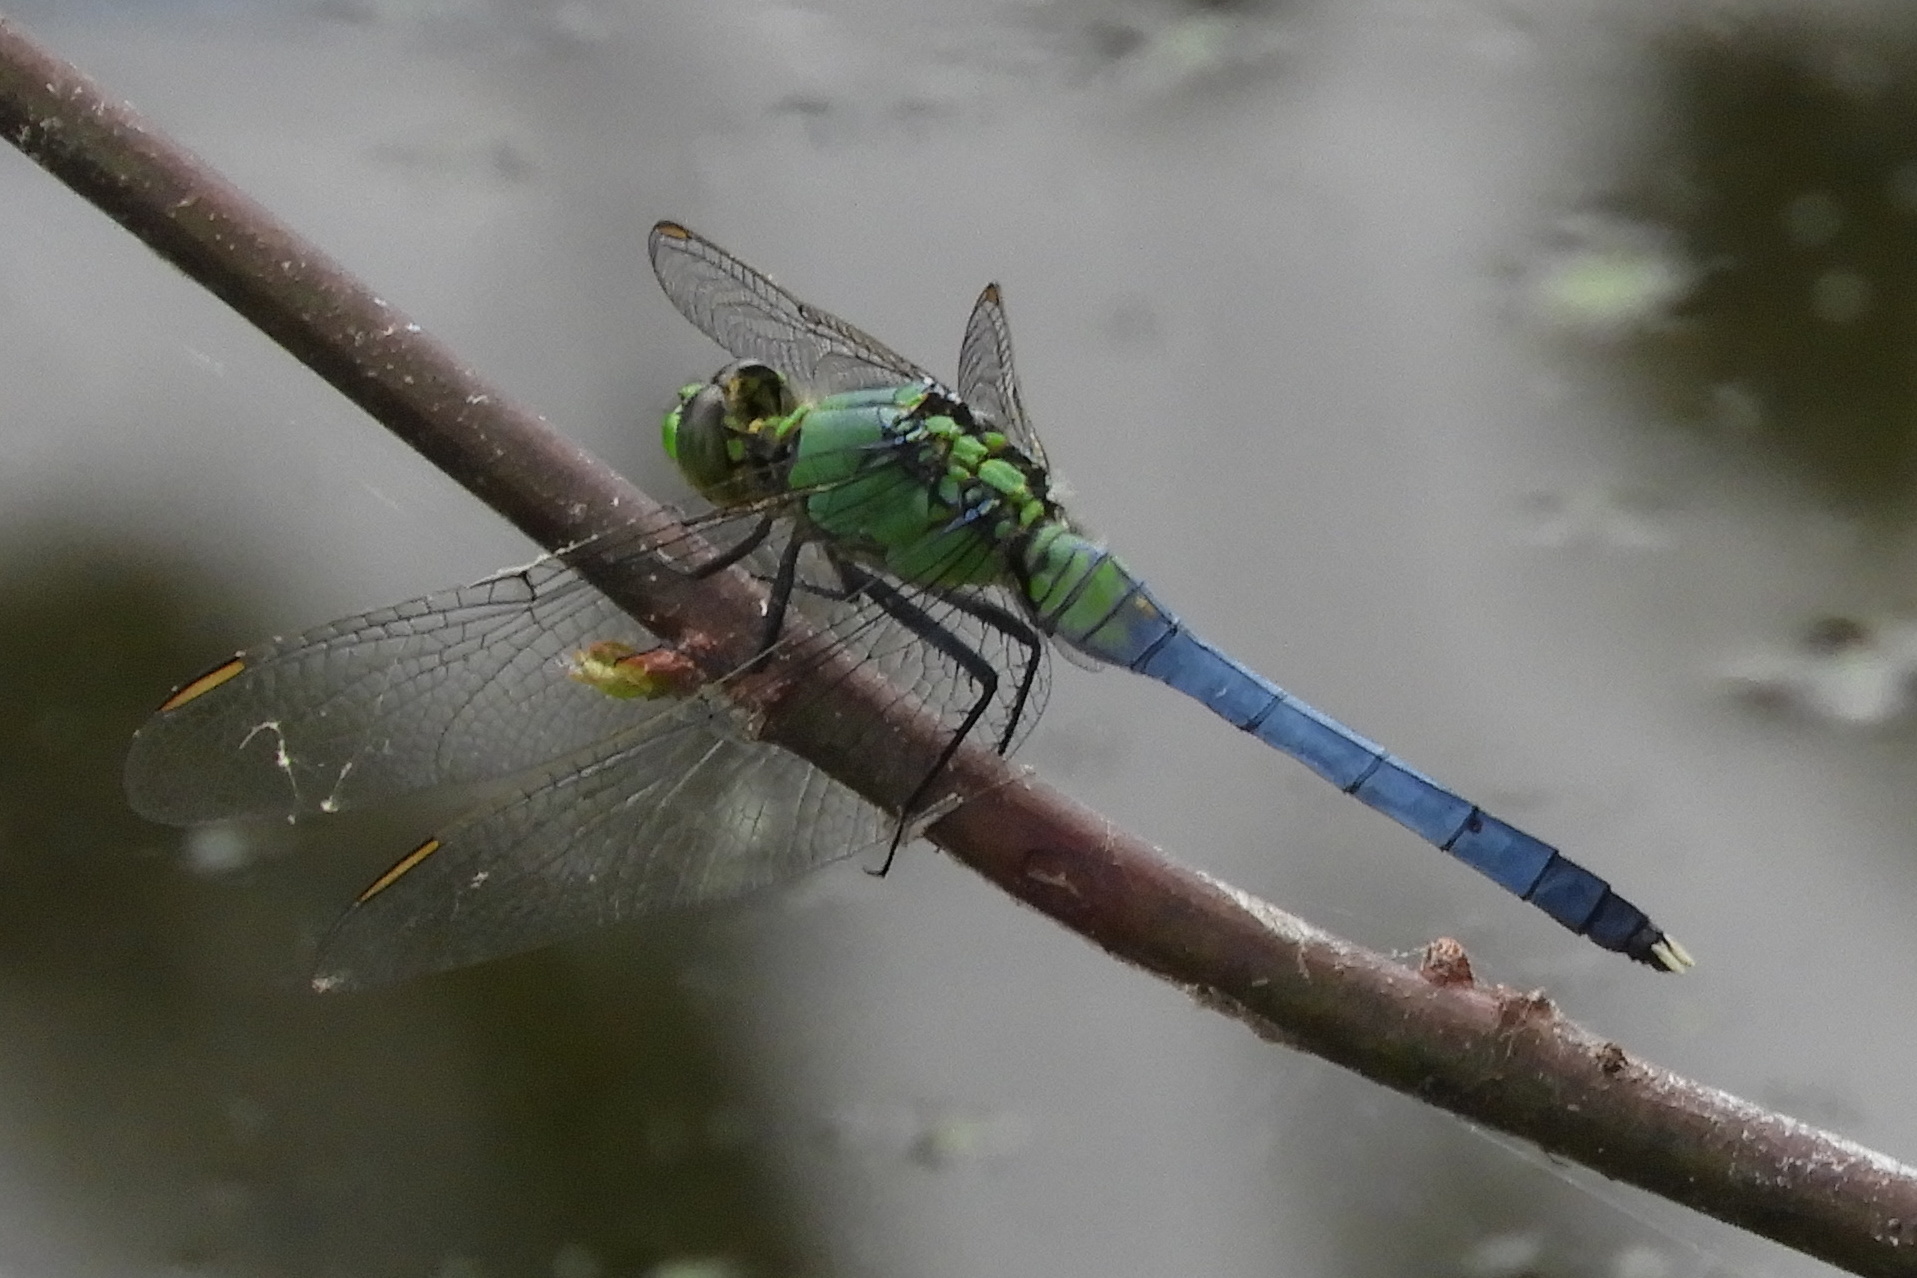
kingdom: Animalia
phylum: Arthropoda
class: Insecta
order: Odonata
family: Libellulidae
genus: Erythemis
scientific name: Erythemis simplicicollis
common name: Eastern pondhawk
